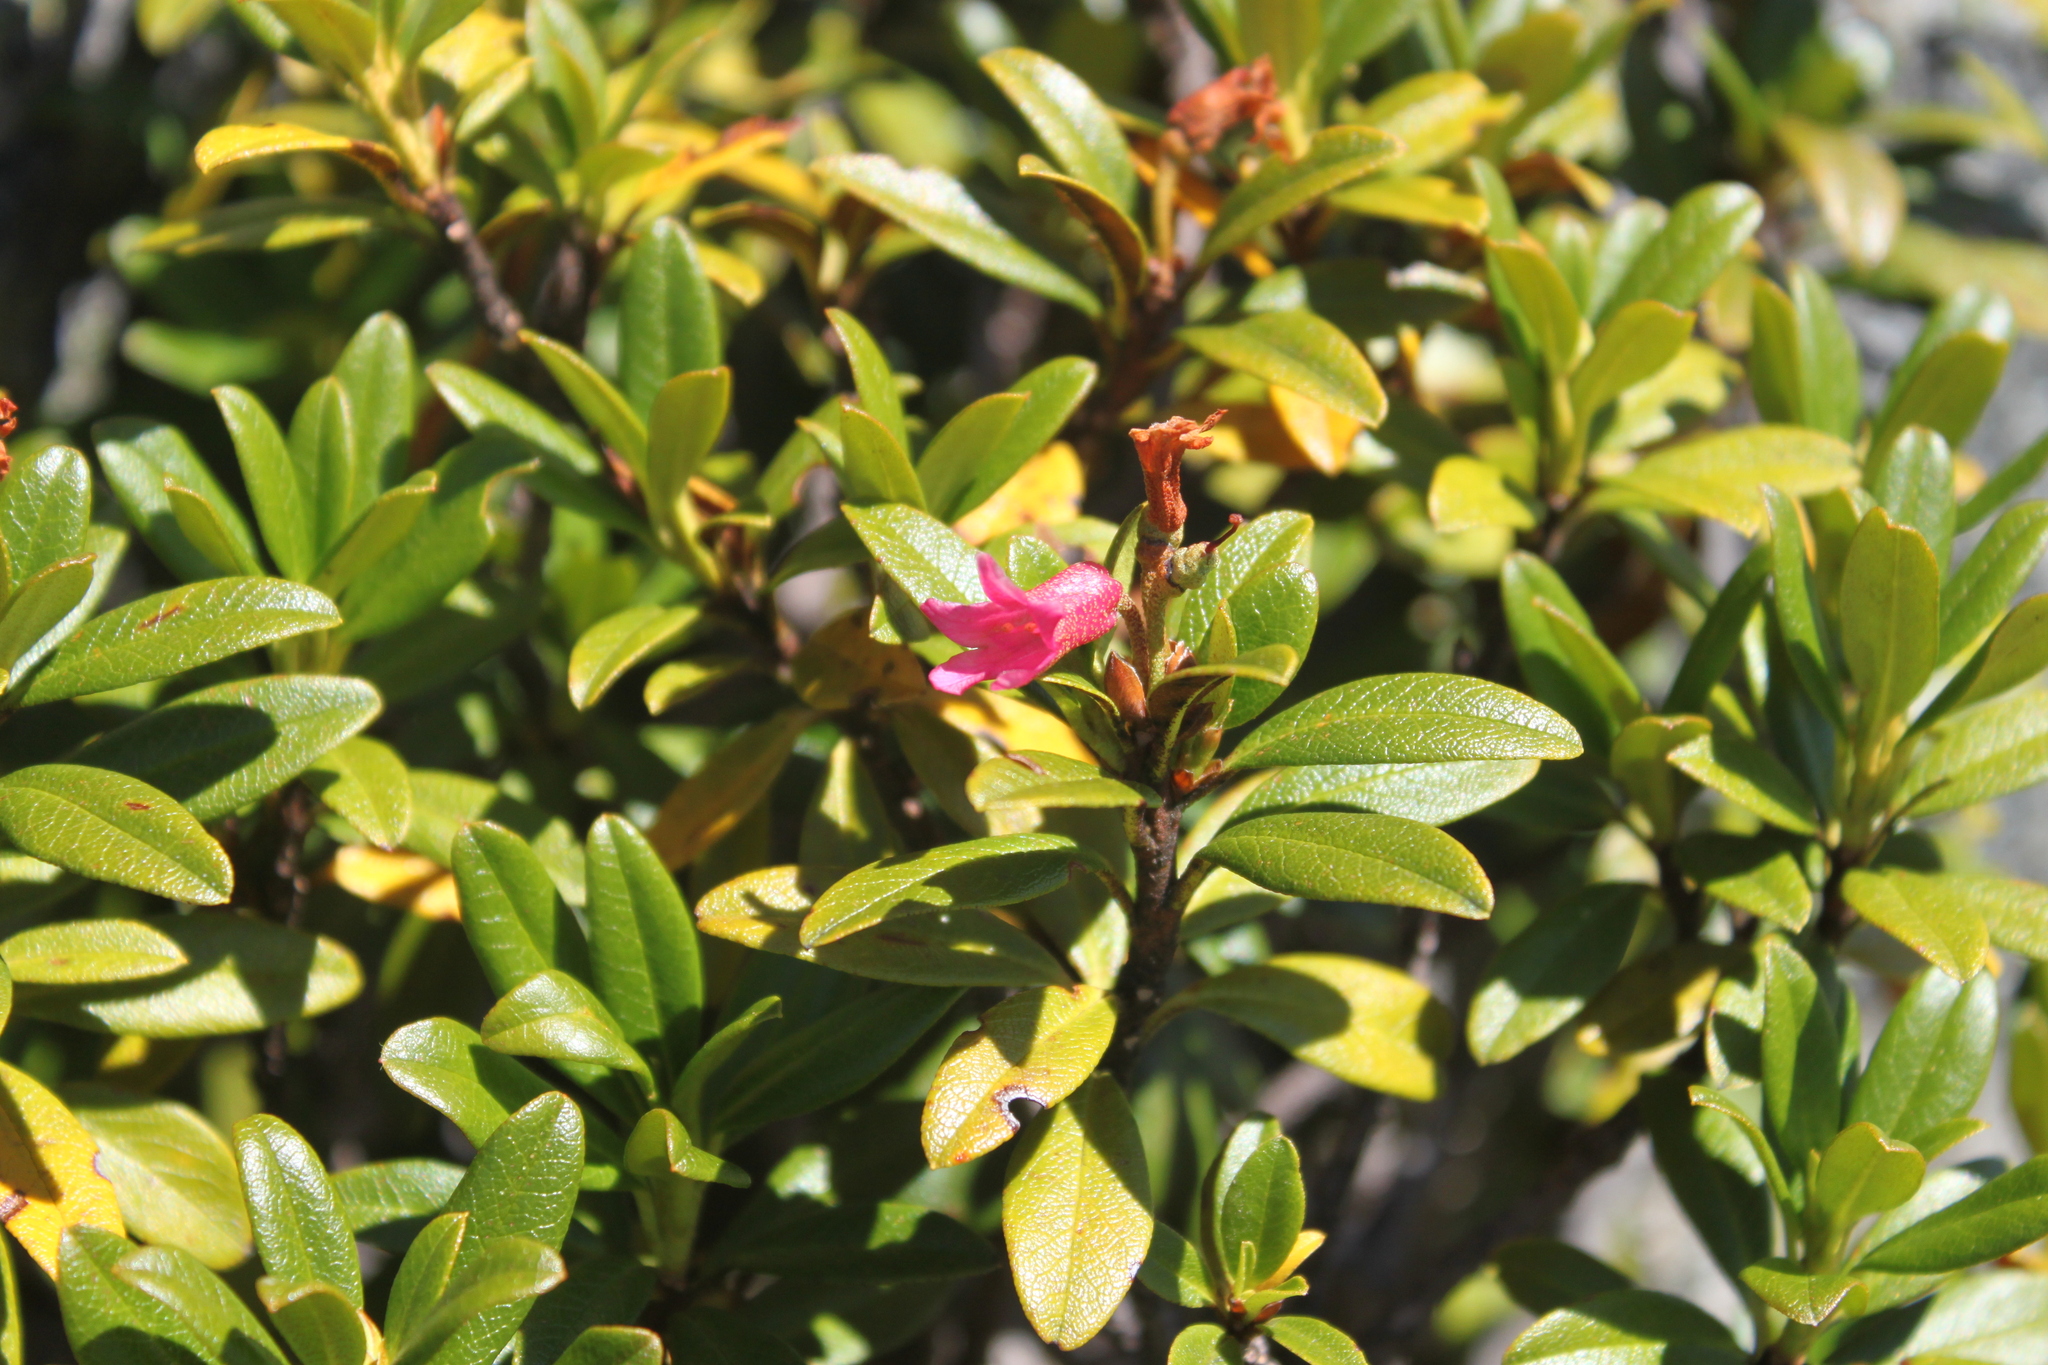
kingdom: Plantae
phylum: Tracheophyta
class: Magnoliopsida
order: Ericales
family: Ericaceae
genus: Rhododendron
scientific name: Rhododendron ferrugineum
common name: Alpenrose
